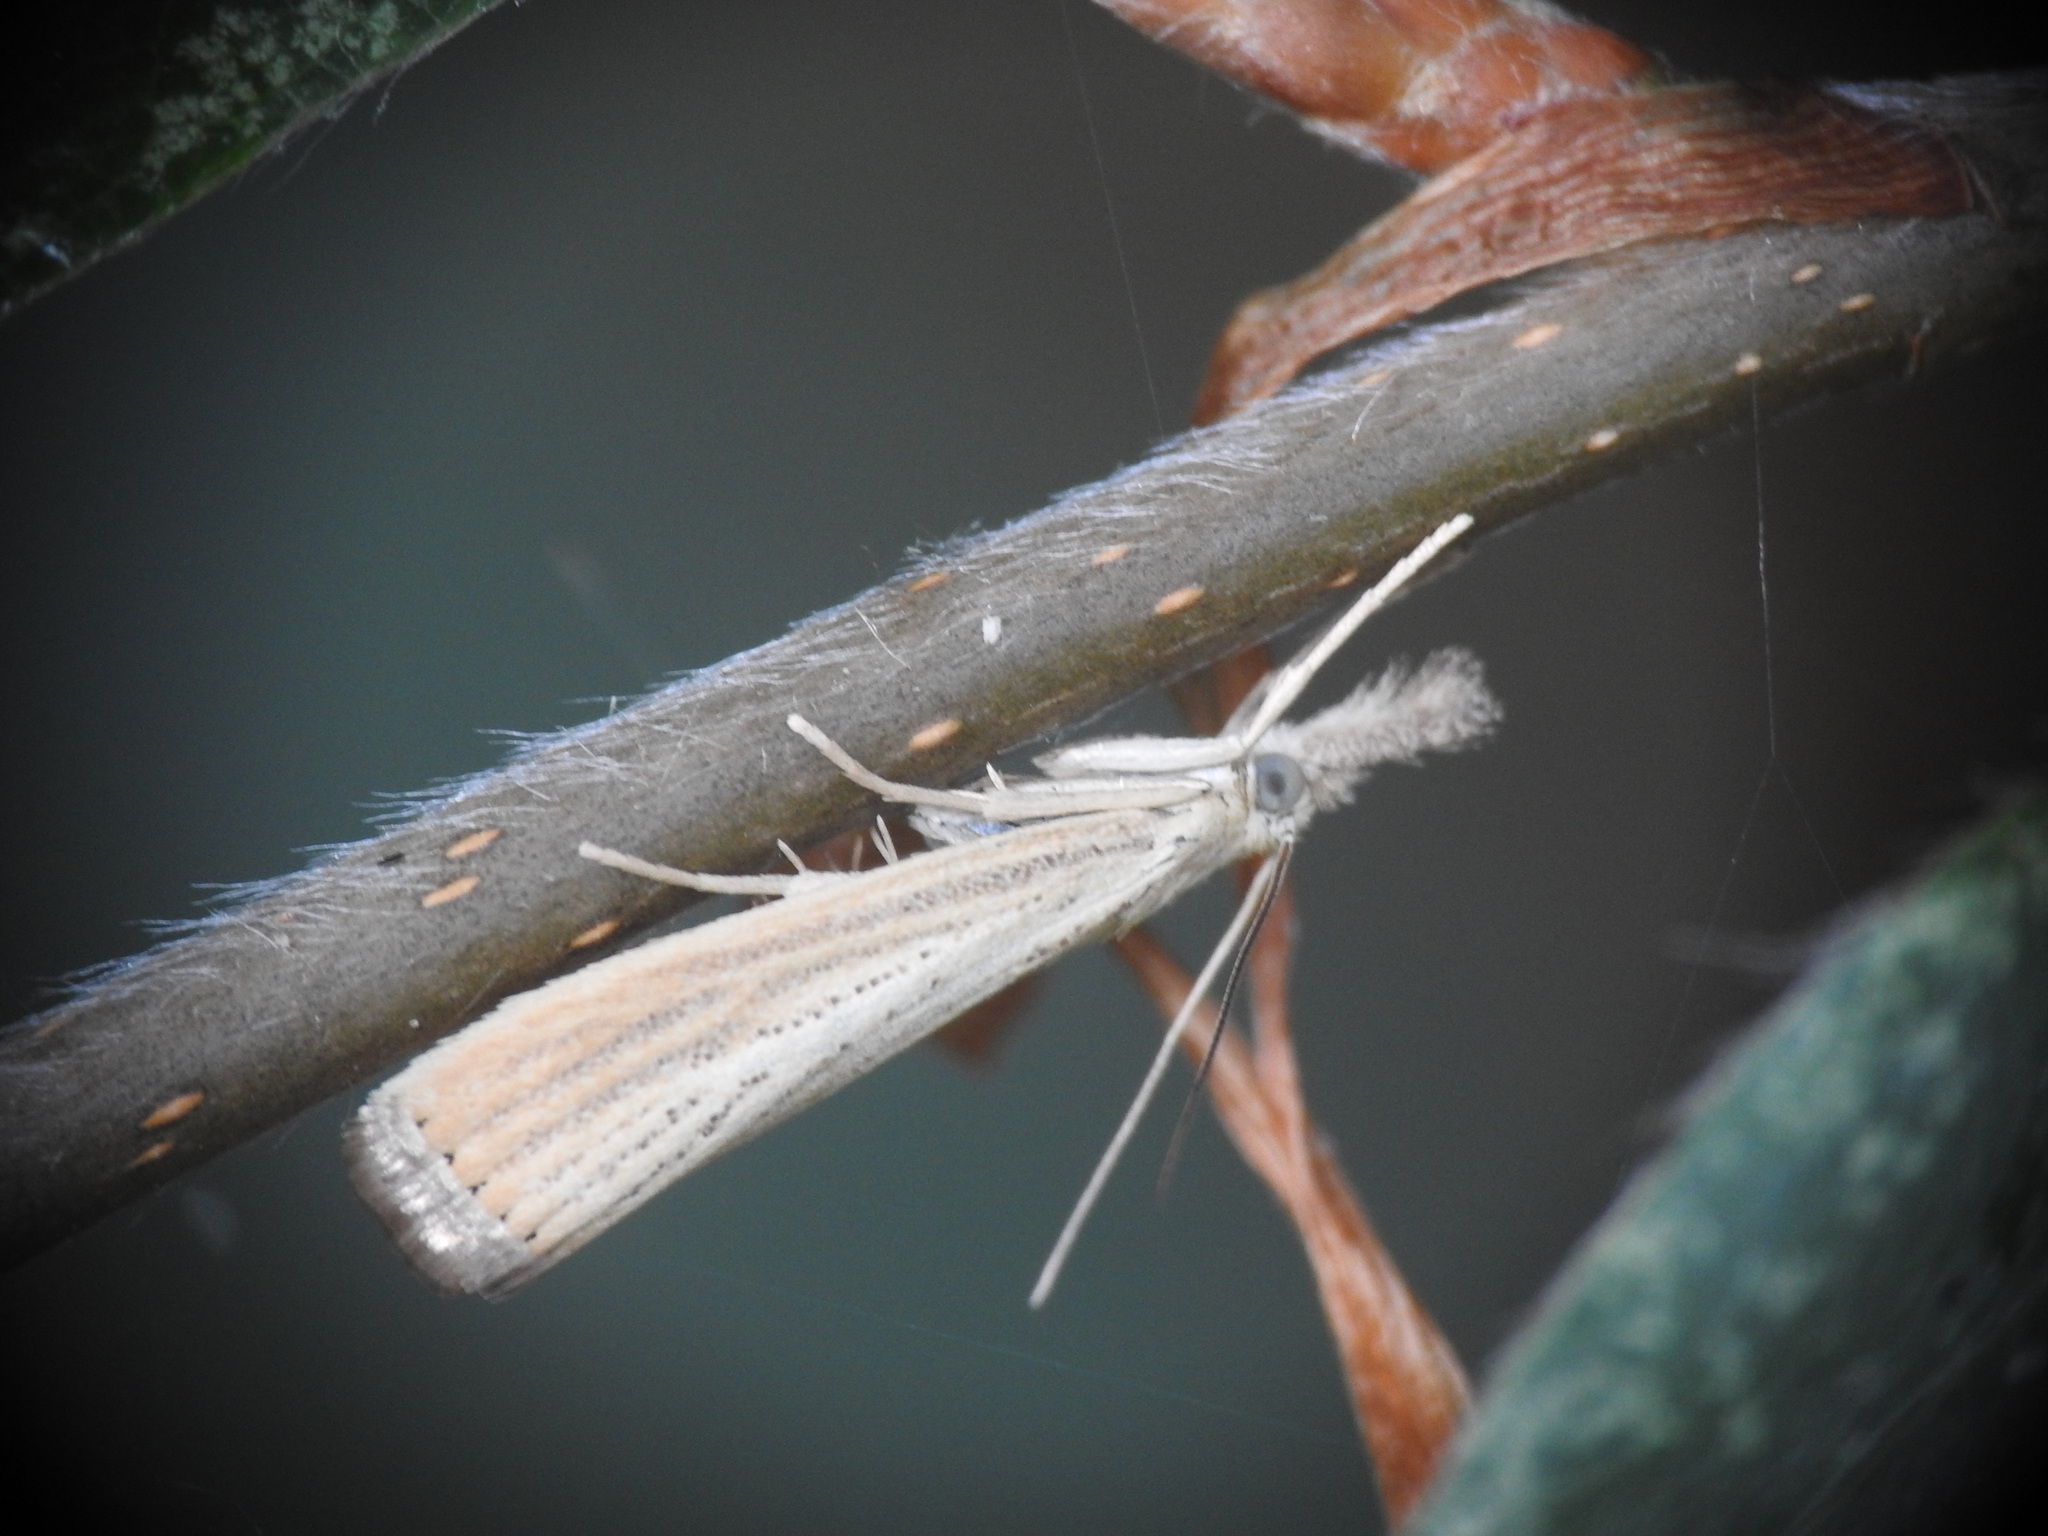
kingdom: Animalia
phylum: Arthropoda
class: Insecta
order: Lepidoptera
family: Crambidae
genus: Agriphila
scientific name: Agriphila straminella
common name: Straw grass-veneer
